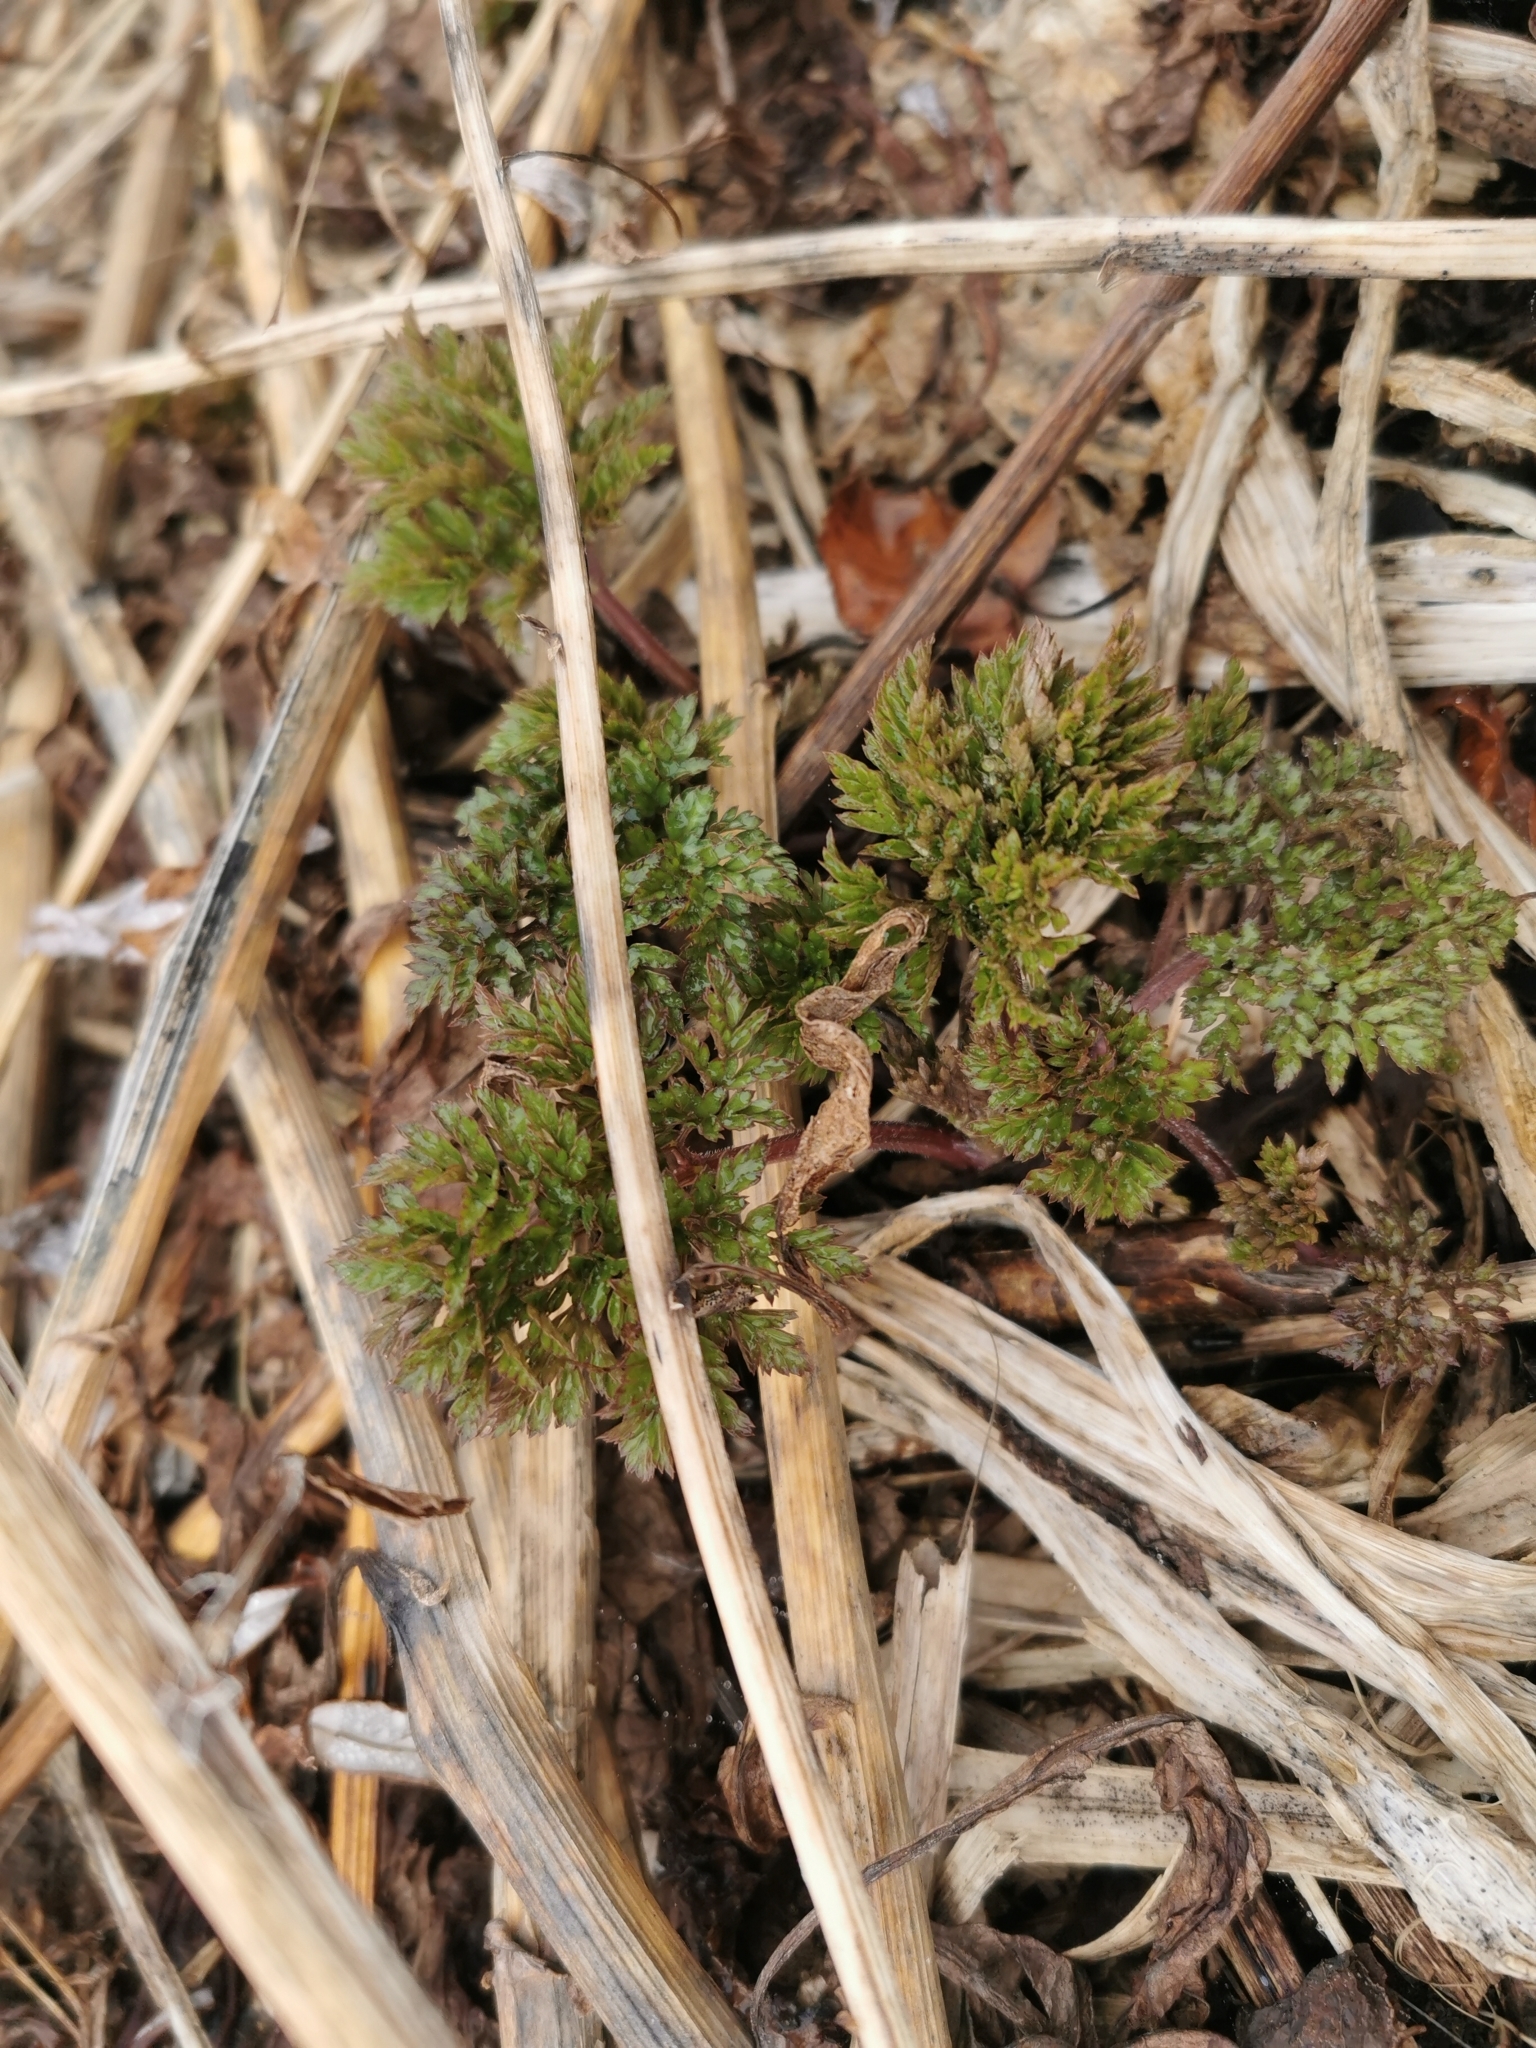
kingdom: Plantae
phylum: Tracheophyta
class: Magnoliopsida
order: Apiales
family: Apiaceae
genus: Anthriscus
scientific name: Anthriscus sylvestris
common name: Cow parsley
